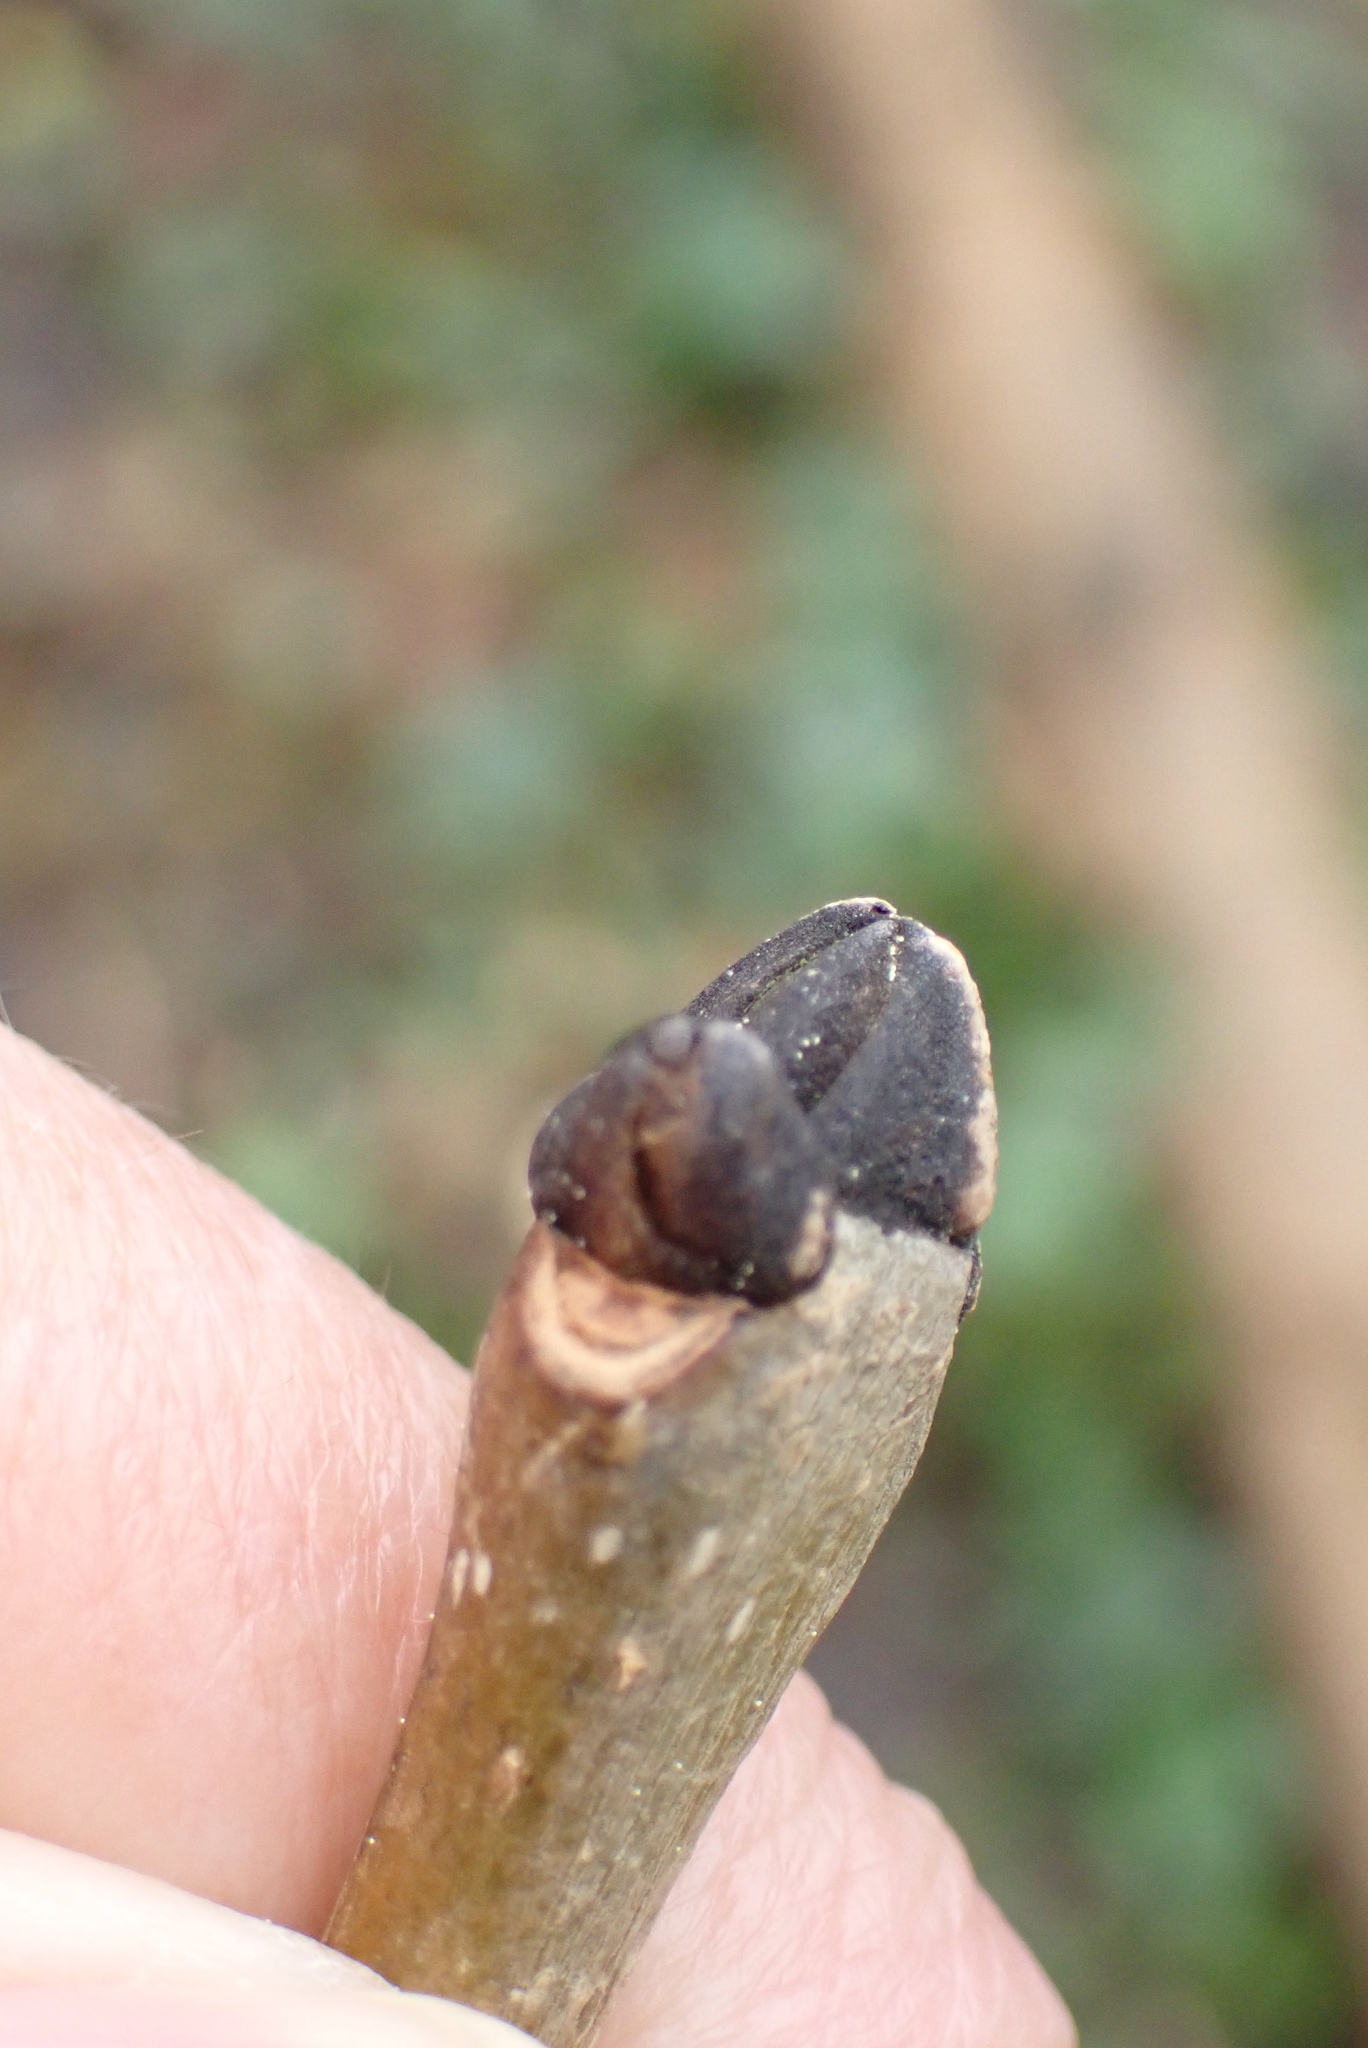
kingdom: Plantae
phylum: Tracheophyta
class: Magnoliopsida
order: Lamiales
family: Oleaceae
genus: Fraxinus
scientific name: Fraxinus excelsior
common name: European ash
